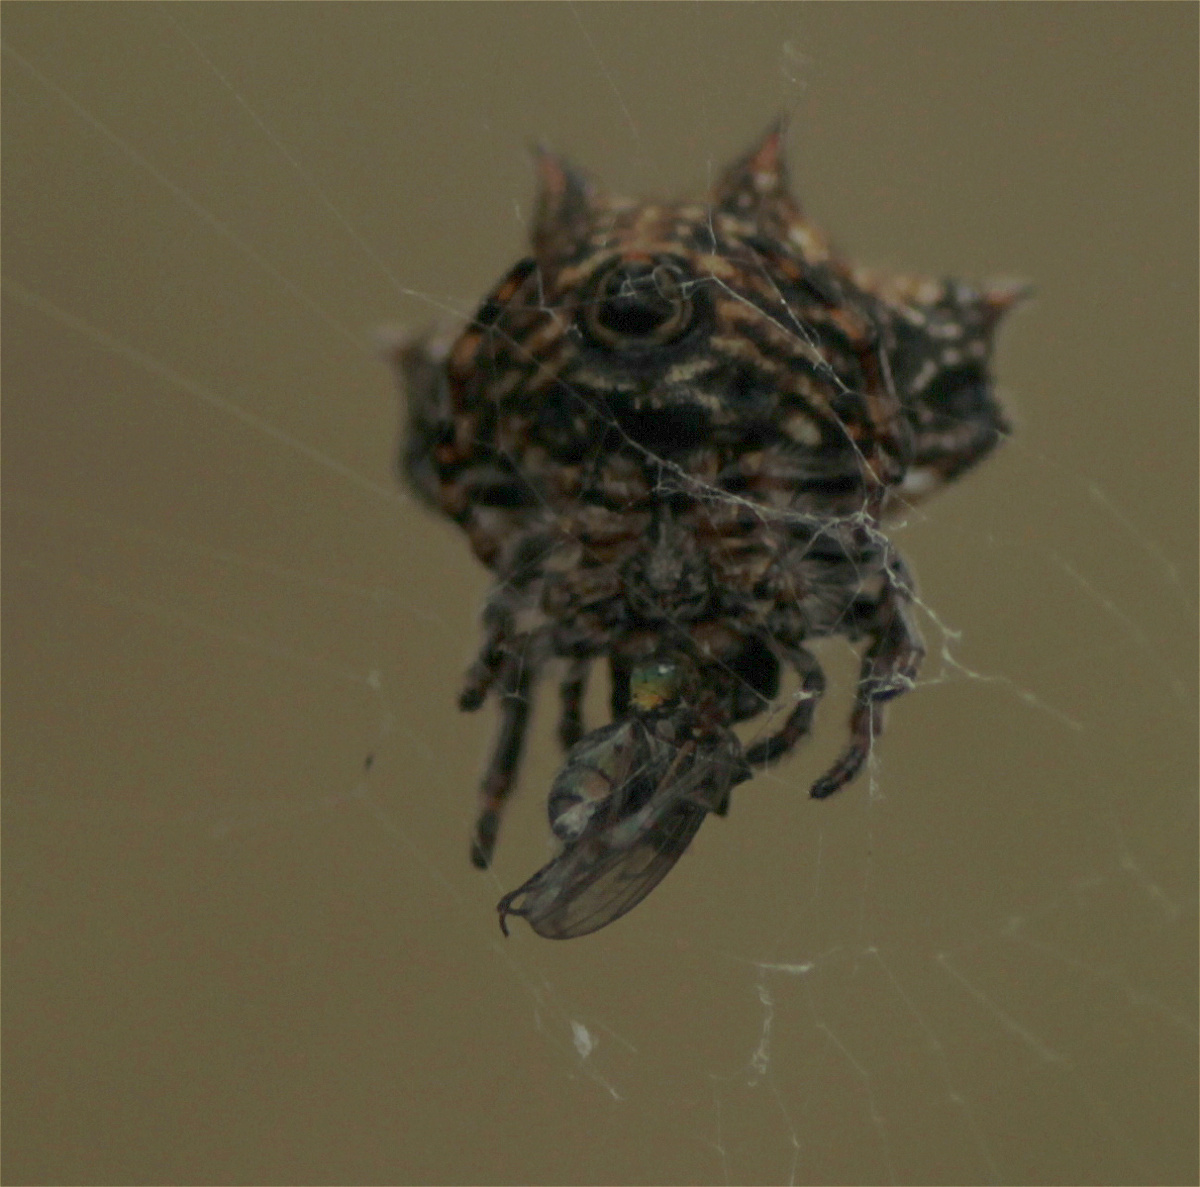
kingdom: Animalia
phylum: Arthropoda
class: Arachnida
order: Araneae
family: Araneidae
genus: Gasteracantha
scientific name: Gasteracantha cancriformis
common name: Orb weavers
